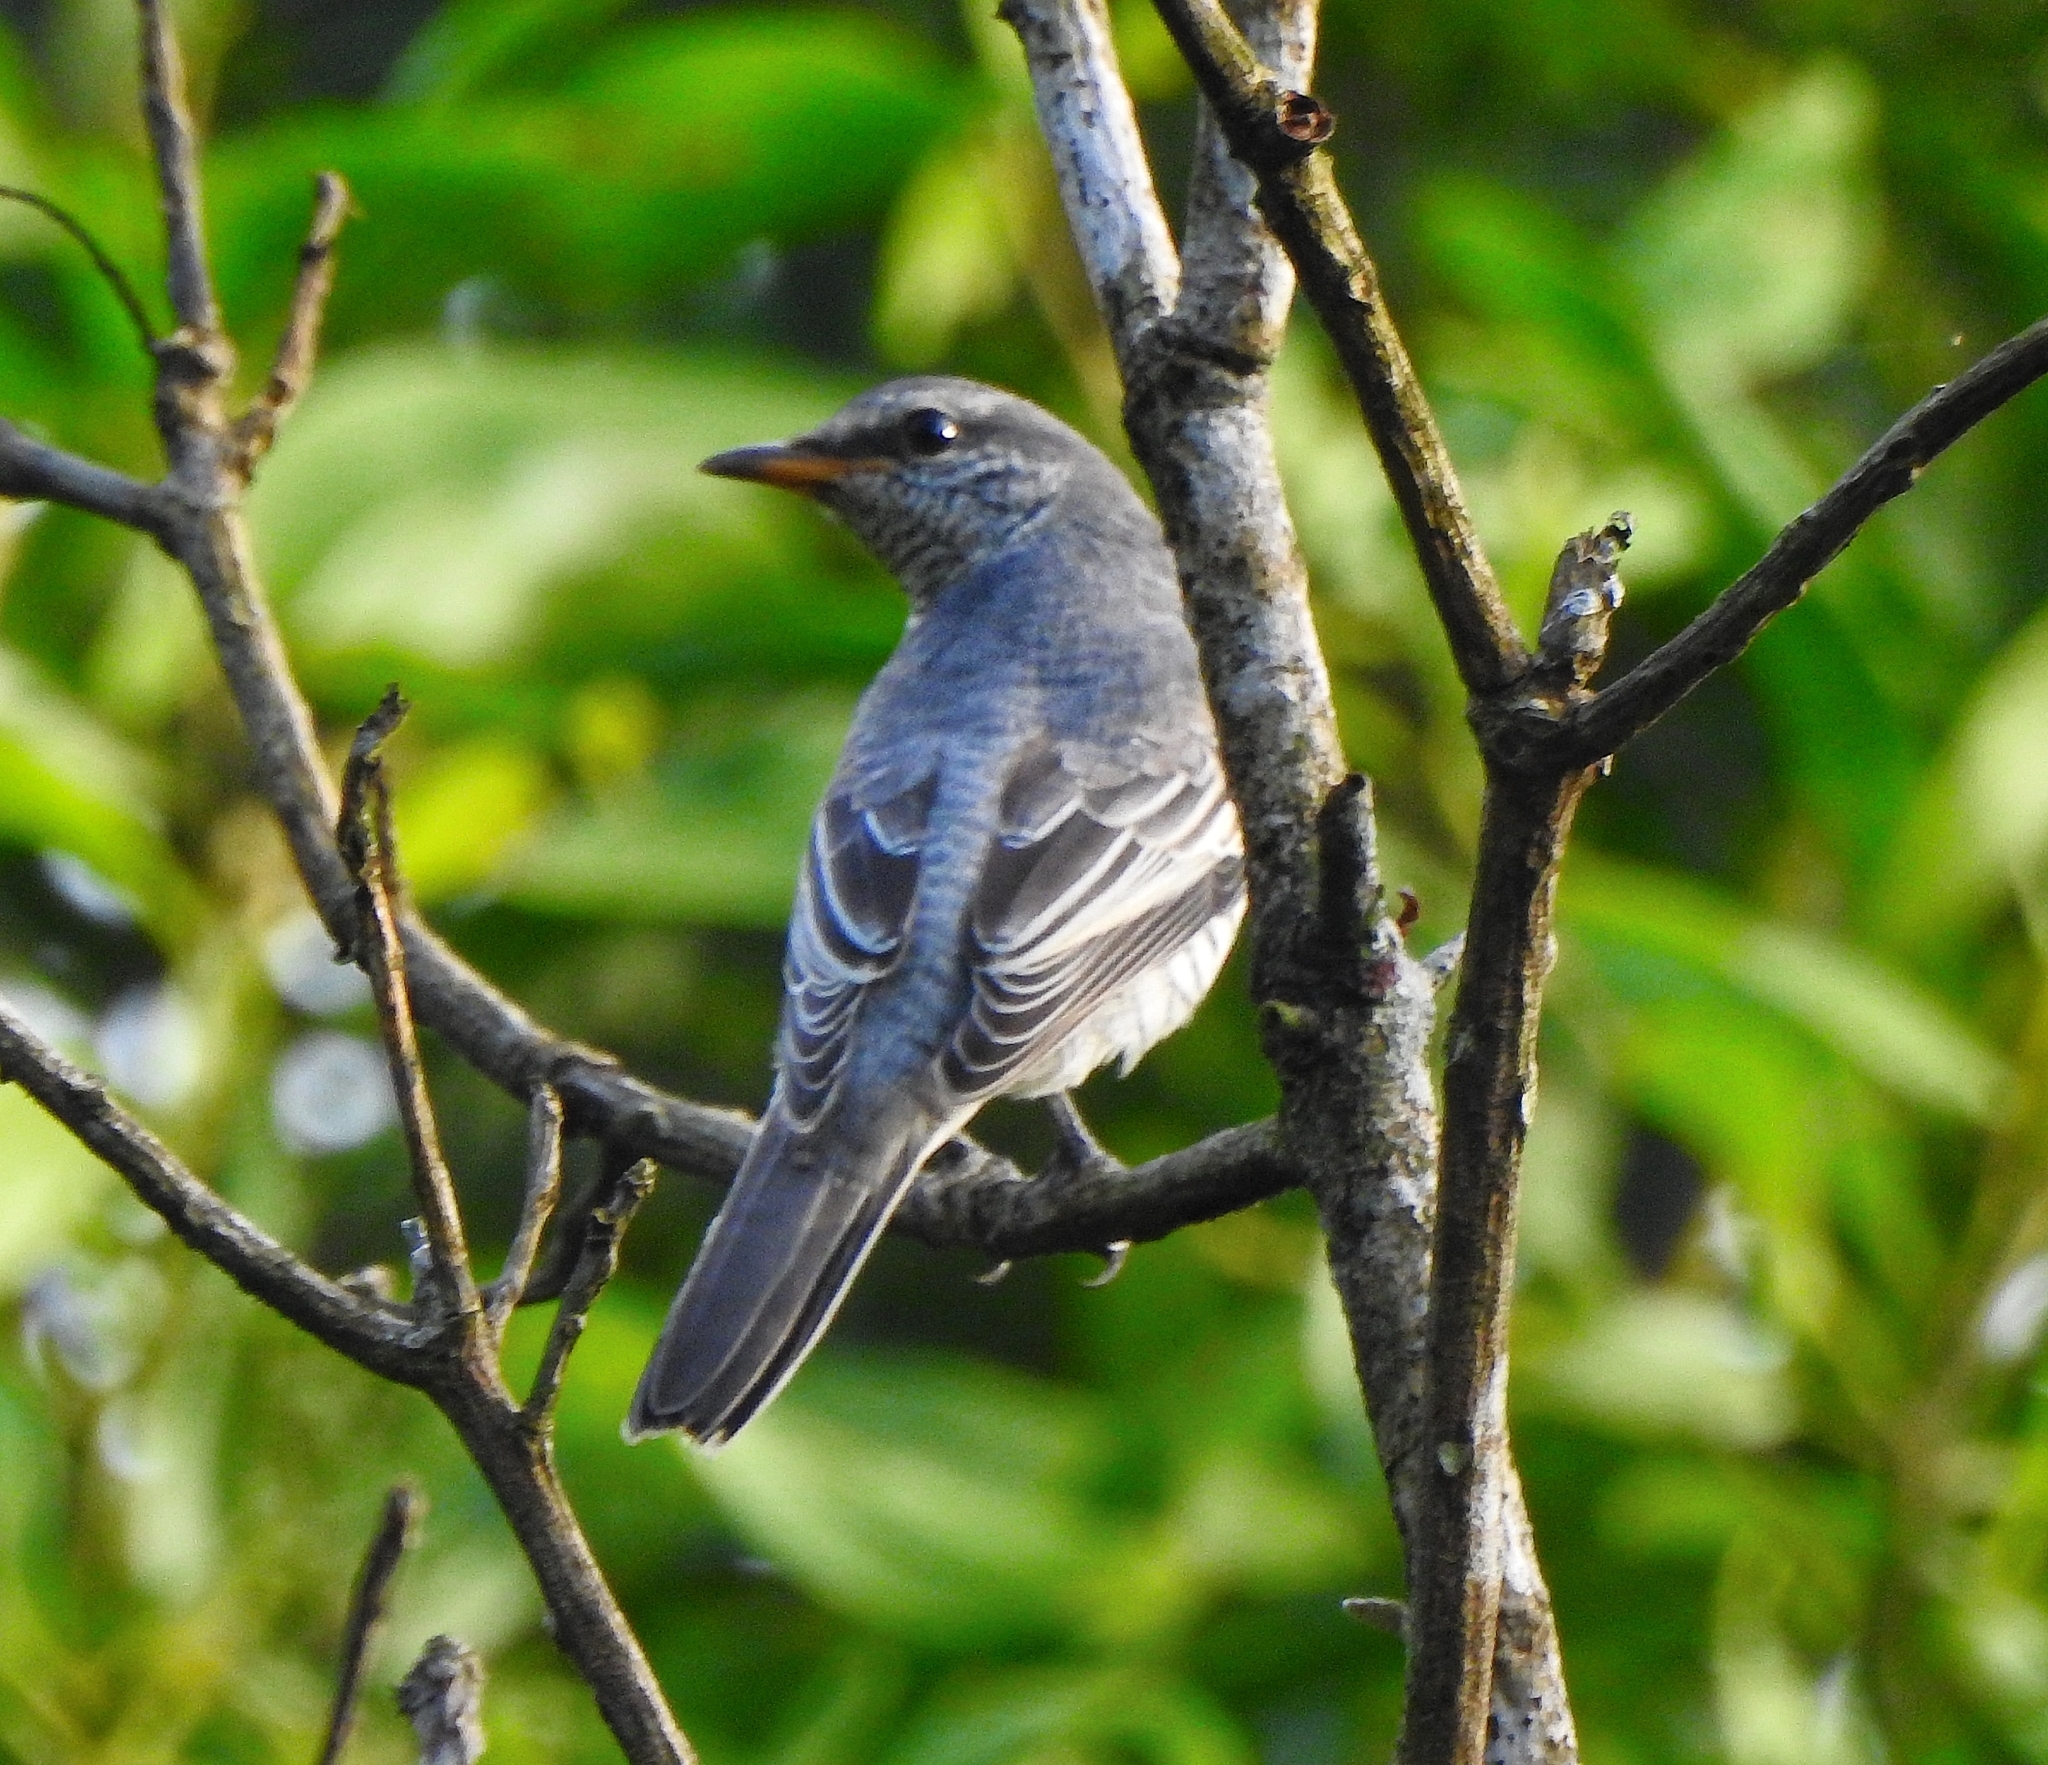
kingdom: Animalia
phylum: Chordata
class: Aves
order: Passeriformes
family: Campephagidae
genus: Coracina
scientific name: Coracina melanoptera
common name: Black-headed cuckooshrike
